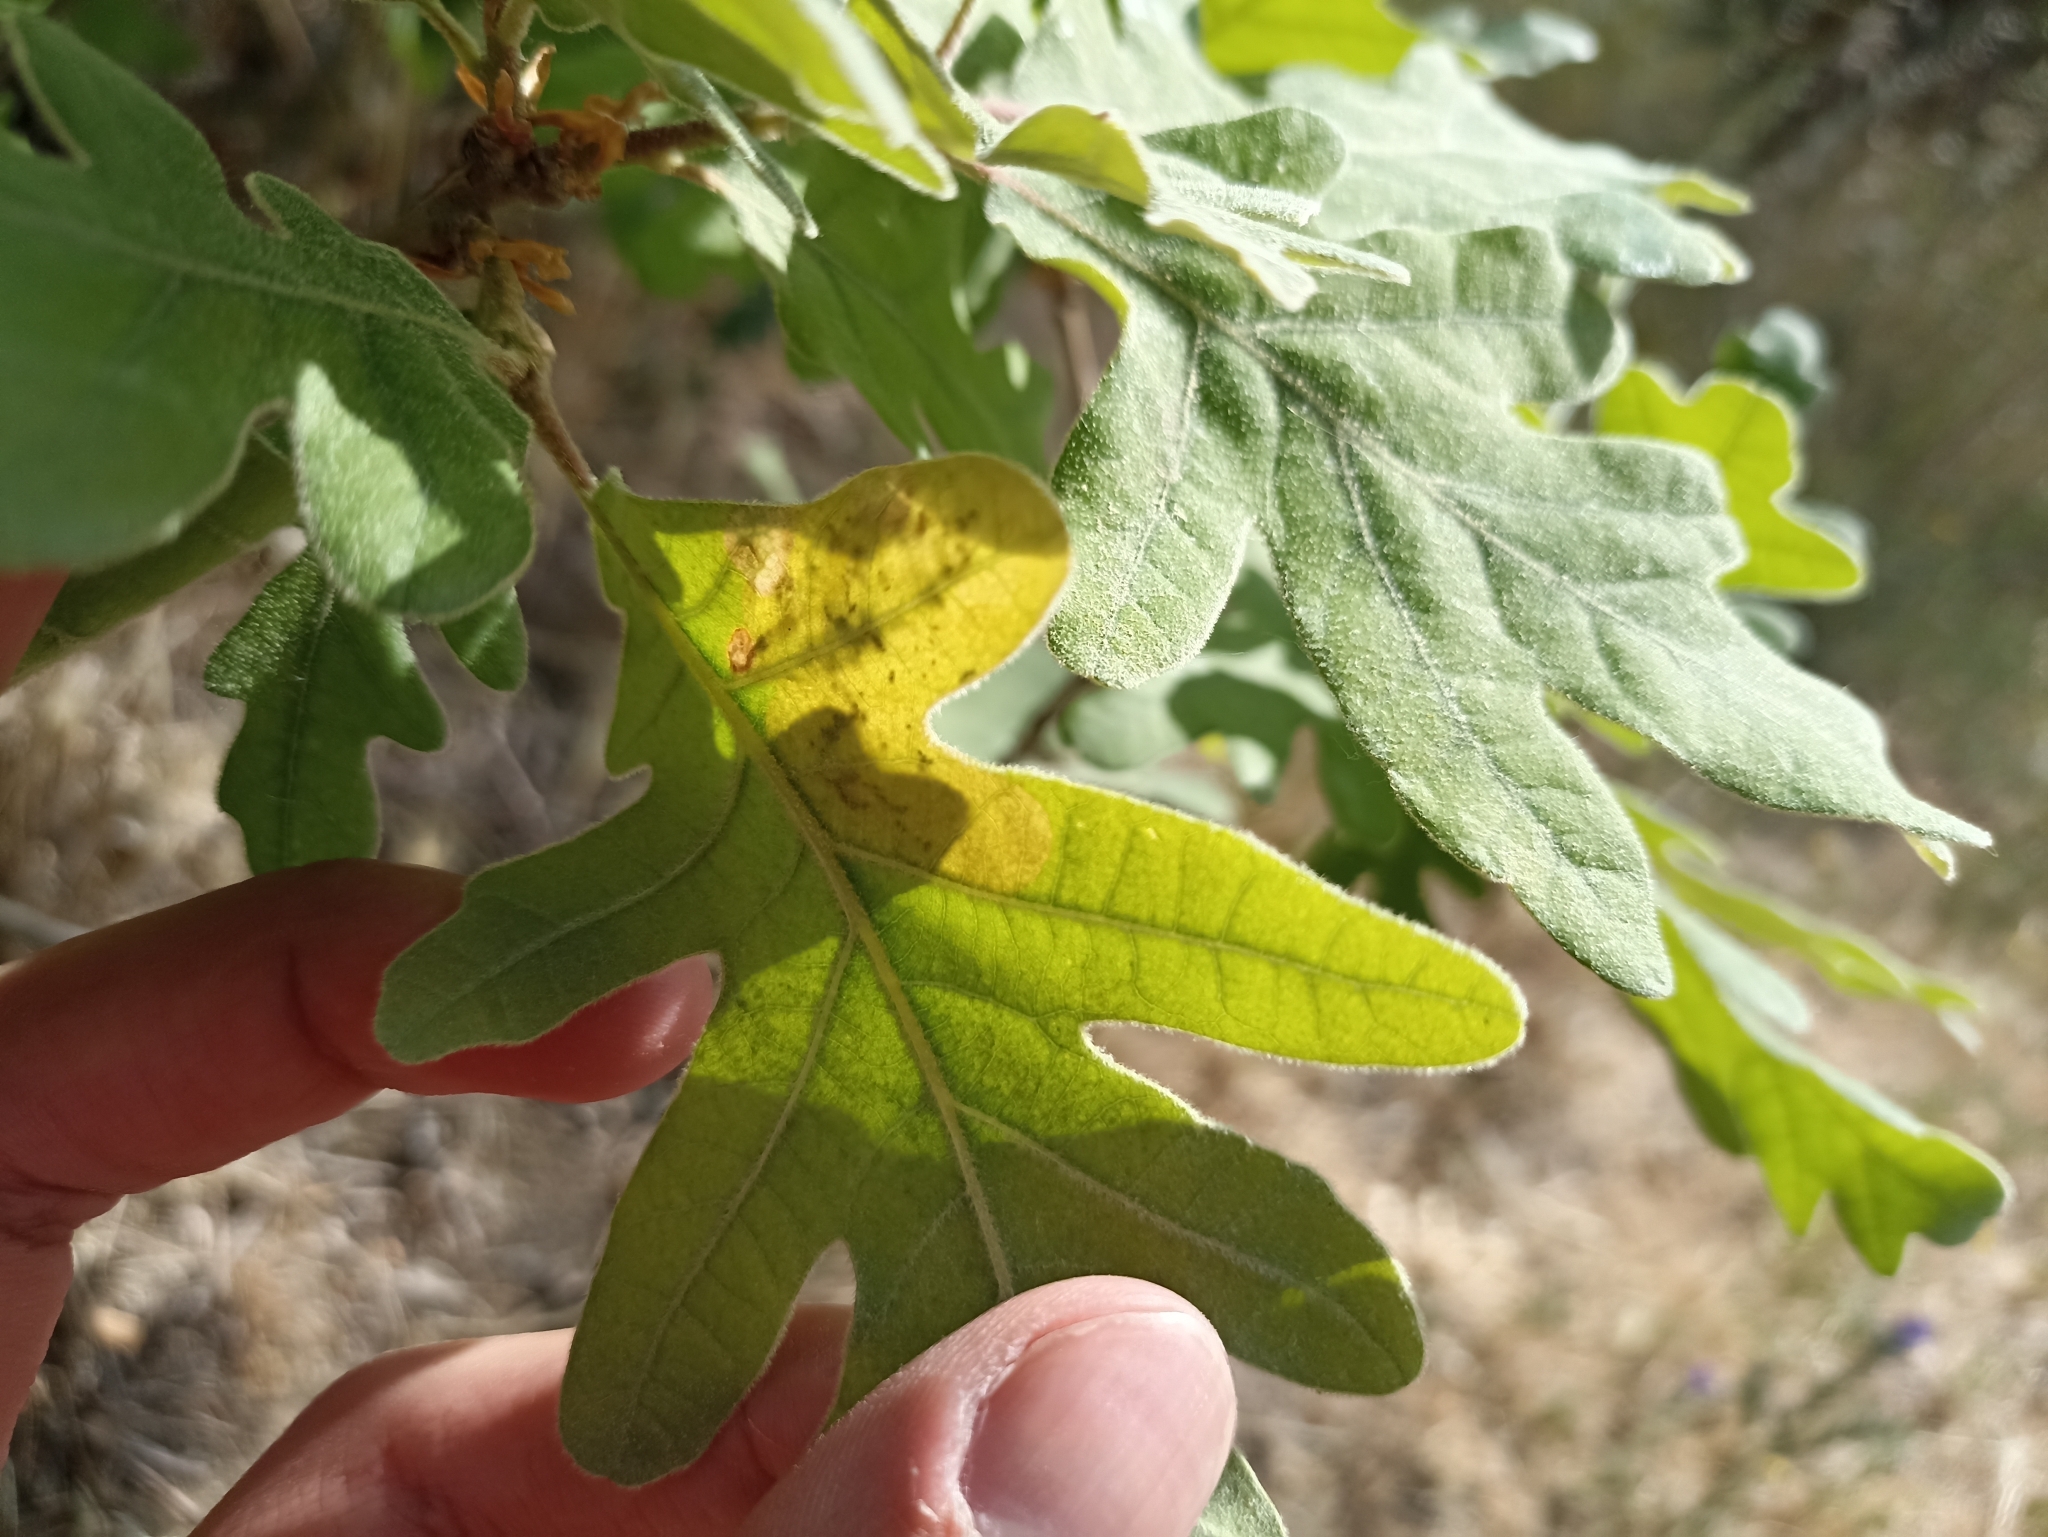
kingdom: Animalia
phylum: Arthropoda
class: Insecta
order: Hymenoptera
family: Tenthredinidae
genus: Profenusa
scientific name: Profenusa pygmaea
